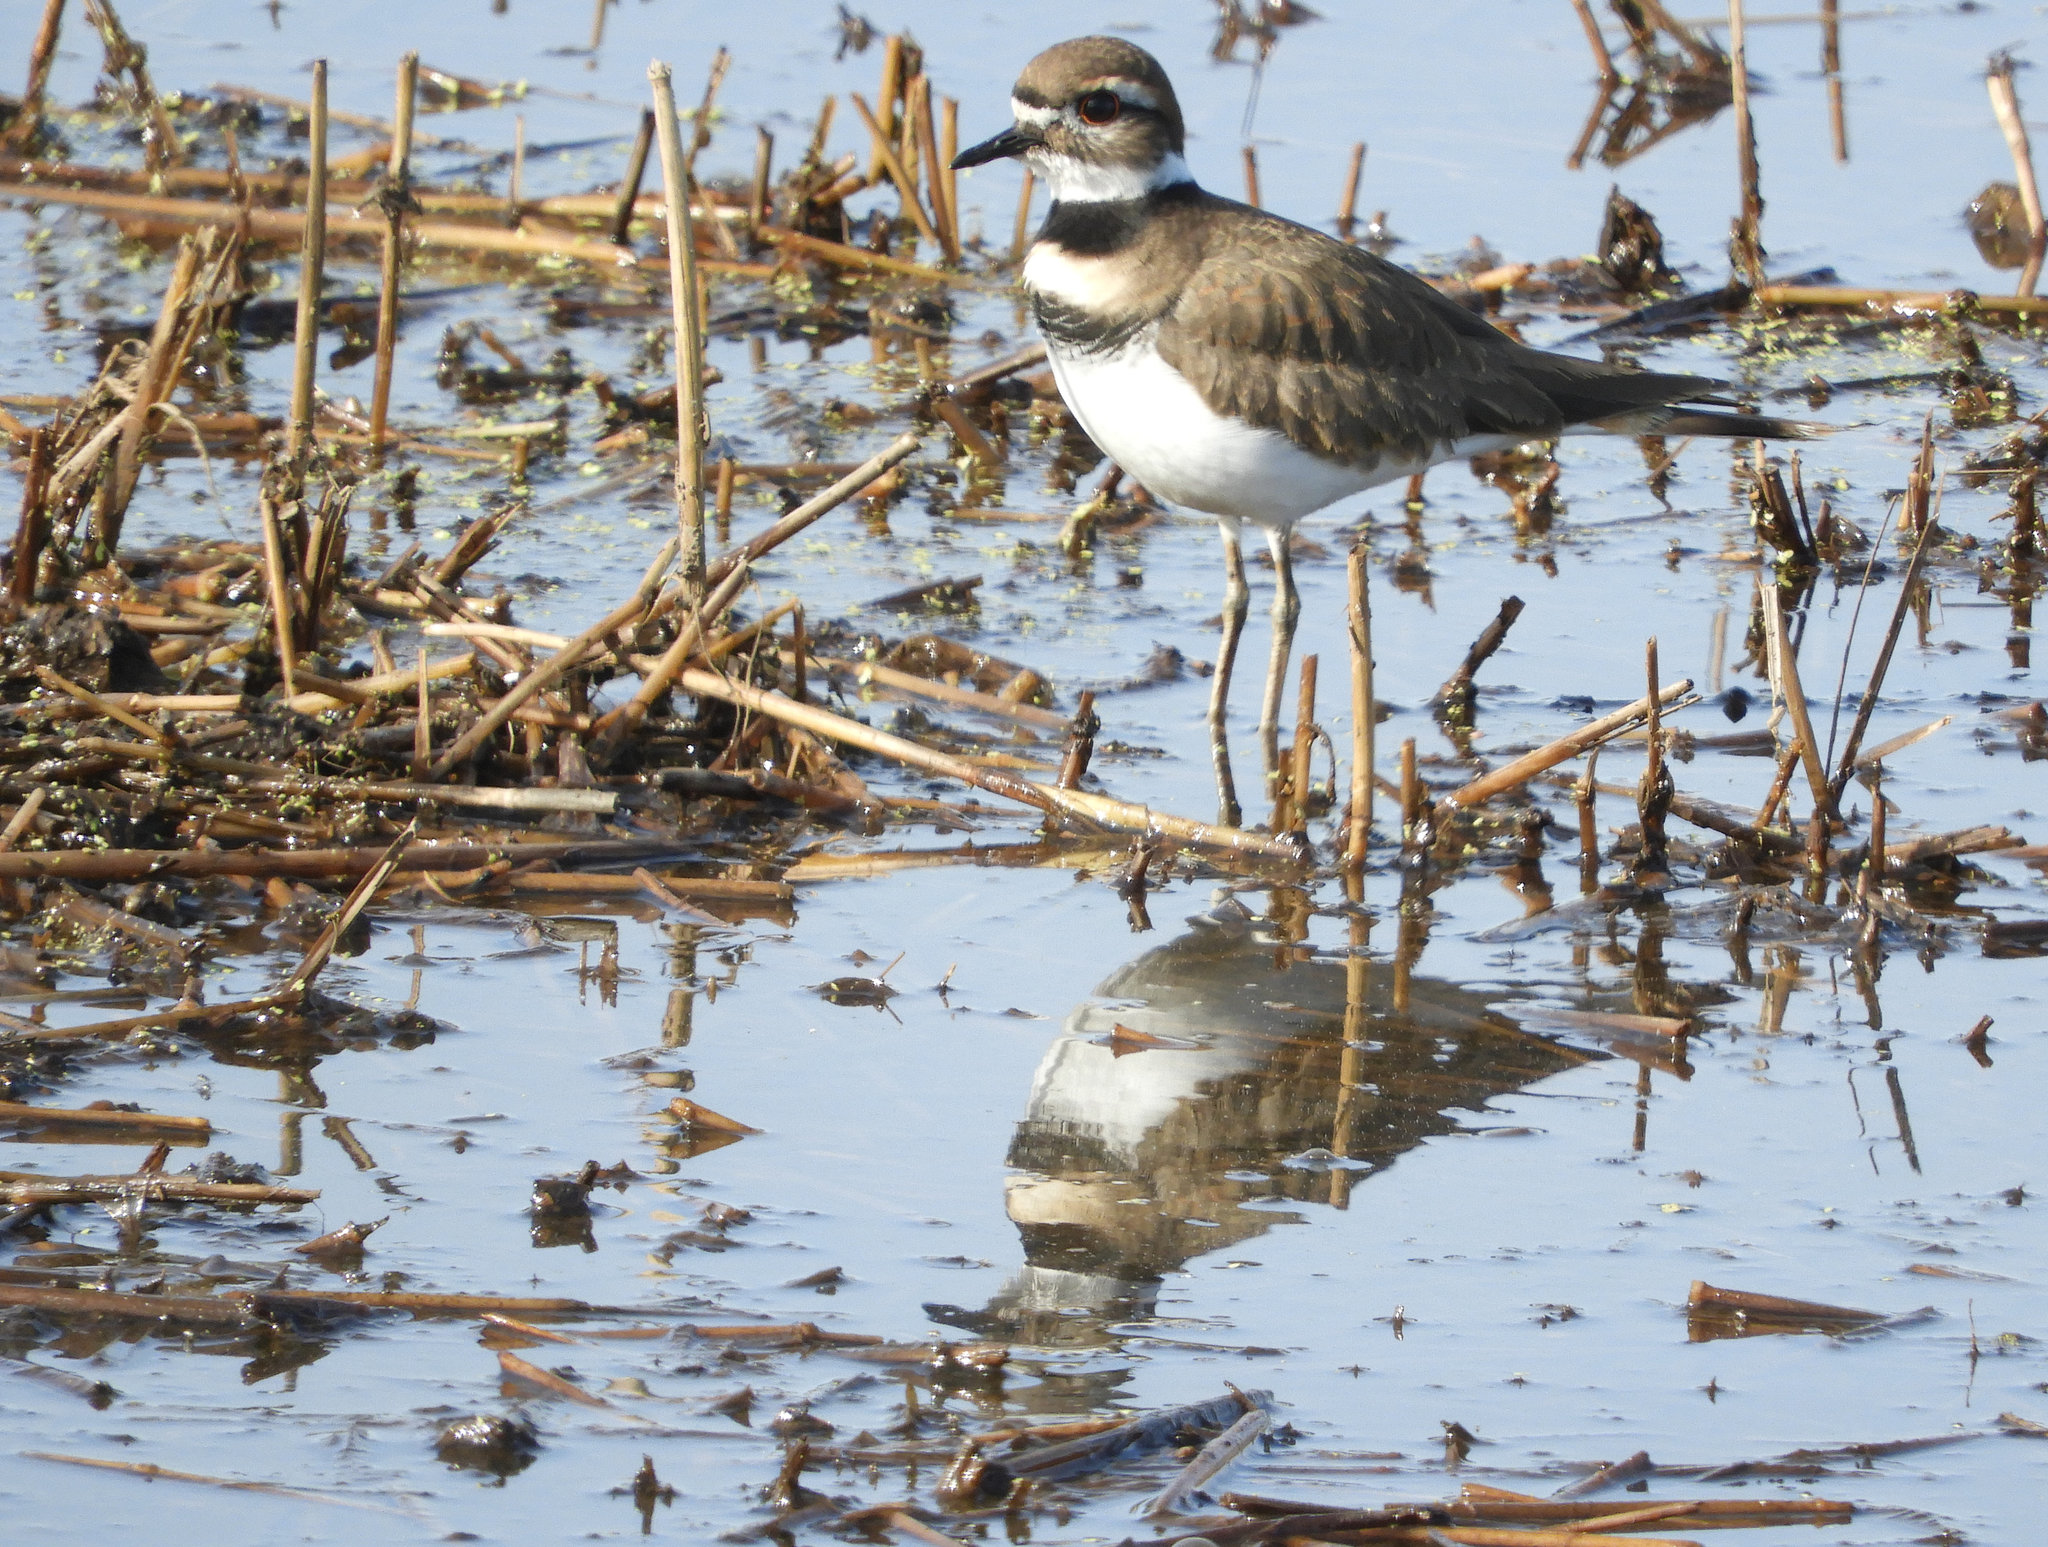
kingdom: Animalia
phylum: Chordata
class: Aves
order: Charadriiformes
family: Charadriidae
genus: Charadrius
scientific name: Charadrius vociferus
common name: Killdeer
